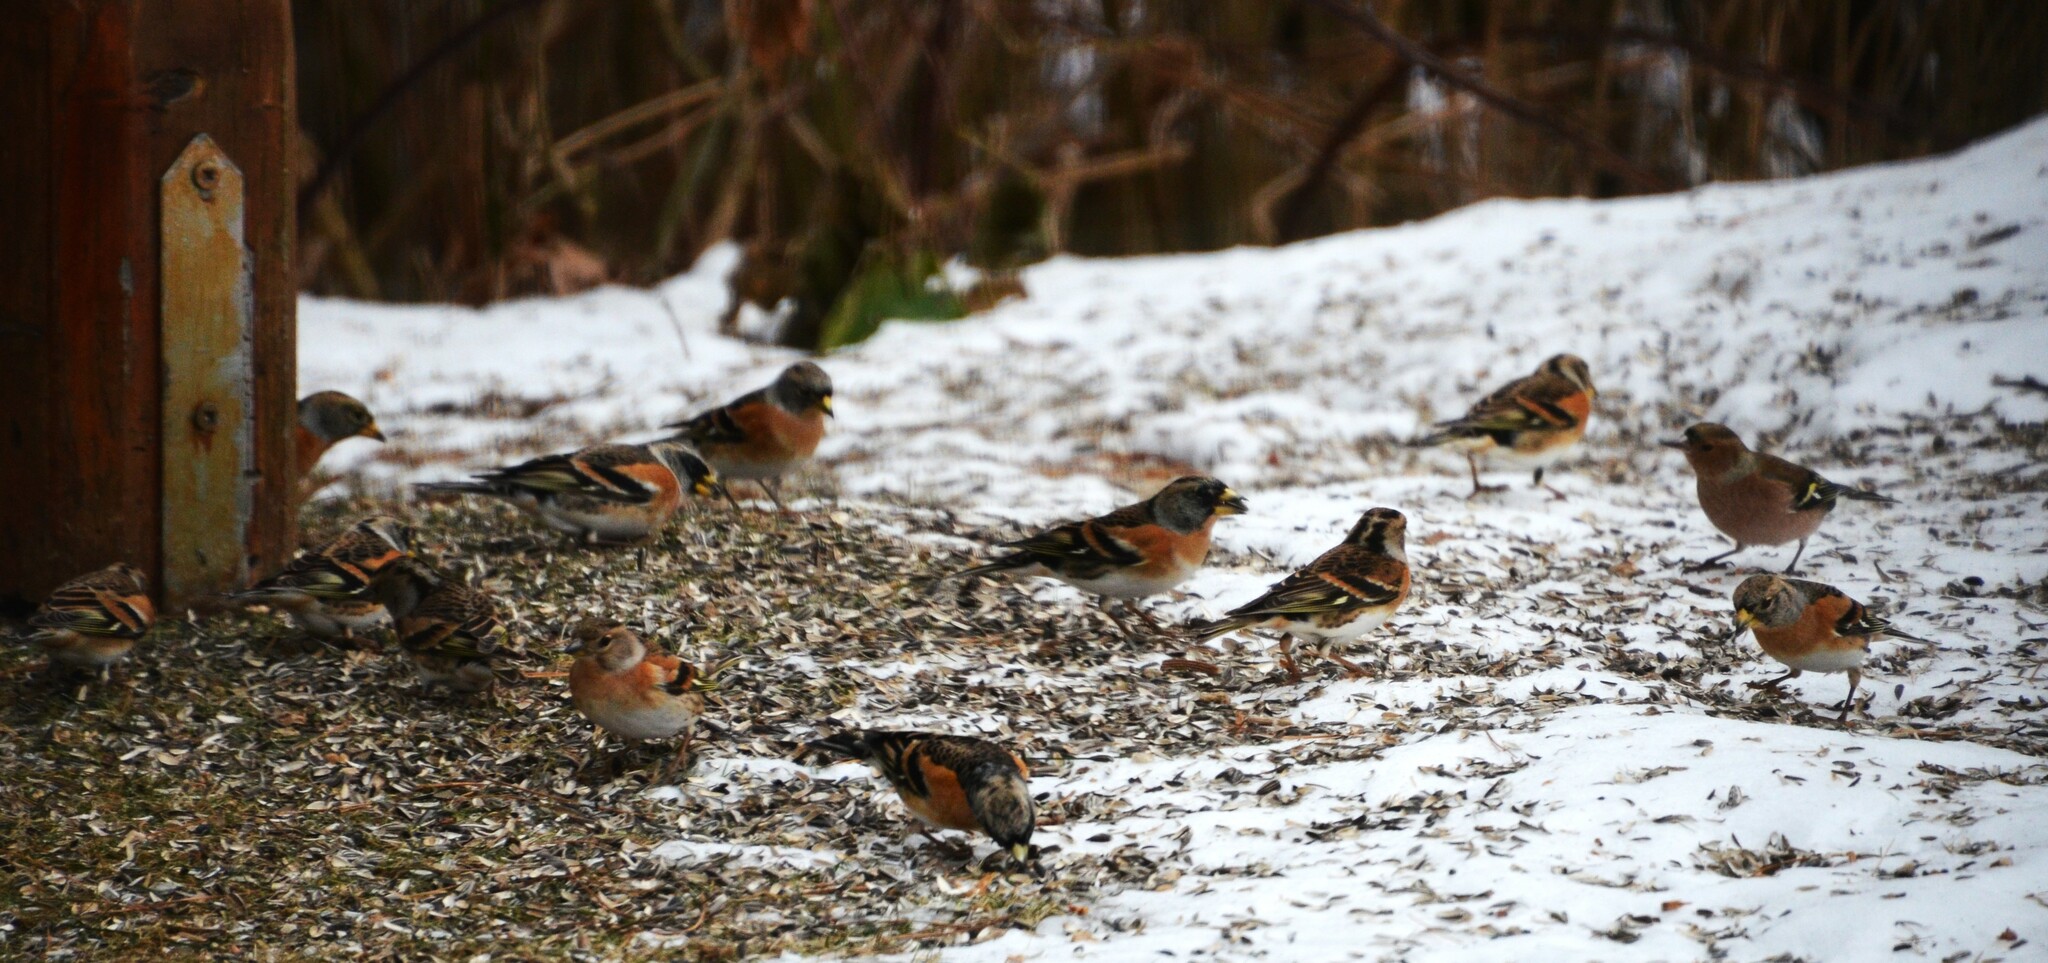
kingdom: Animalia
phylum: Chordata
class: Aves
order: Passeriformes
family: Fringillidae
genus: Fringilla
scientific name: Fringilla montifringilla
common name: Brambling
